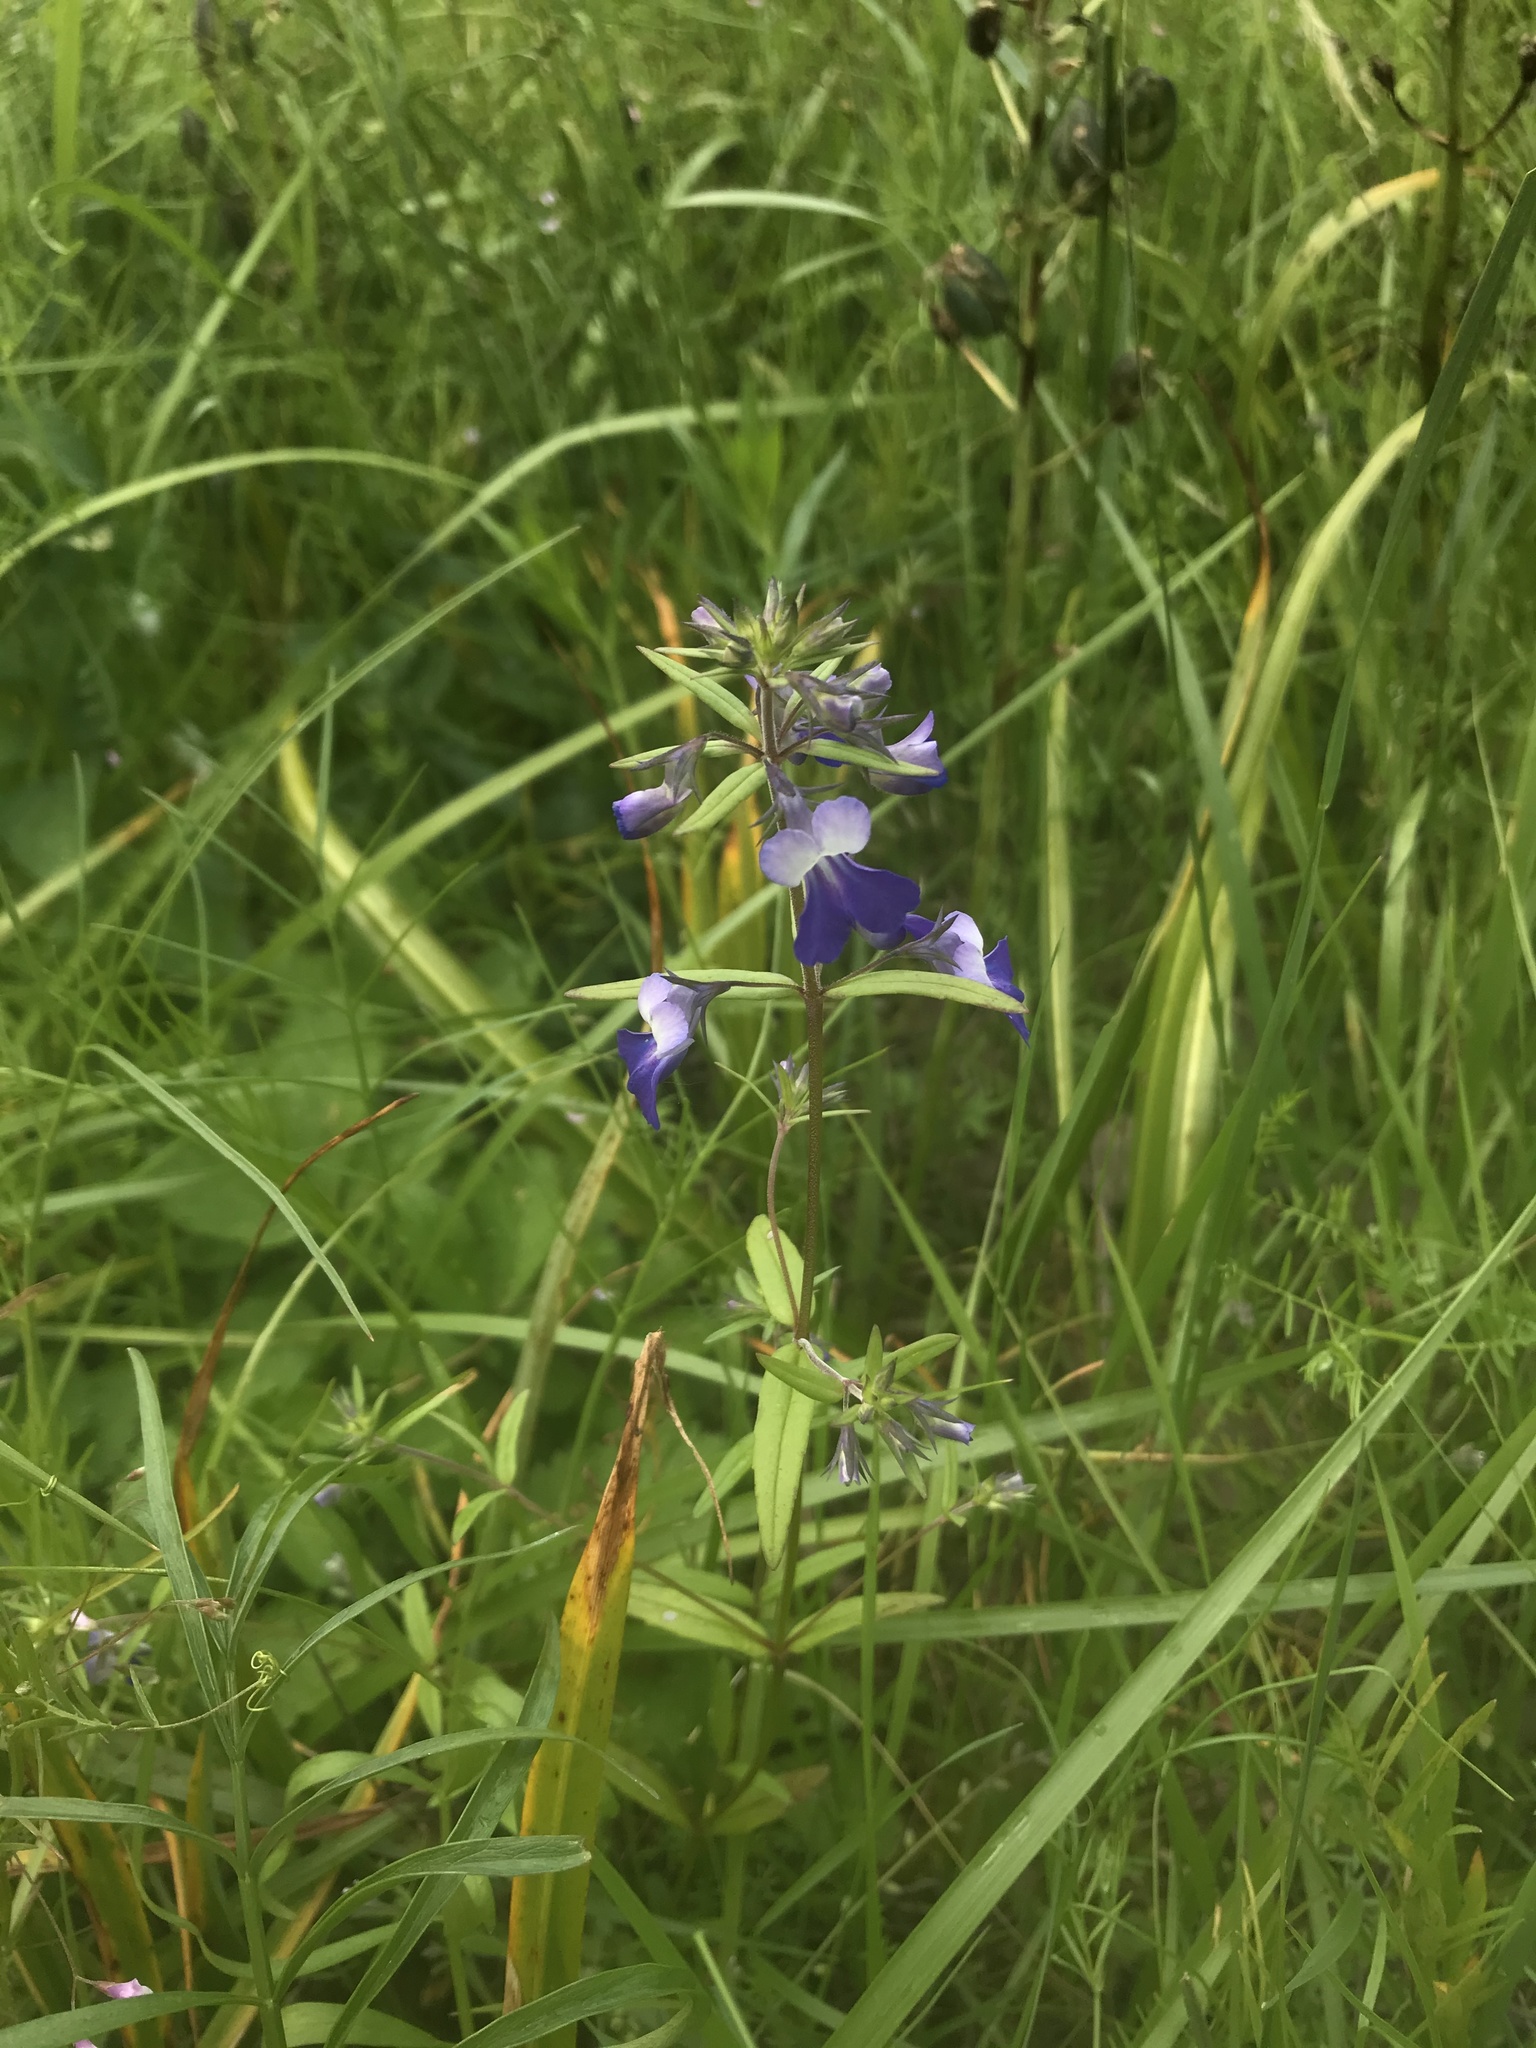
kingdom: Plantae
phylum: Tracheophyta
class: Magnoliopsida
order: Lamiales
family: Plantaginaceae
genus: Collinsia
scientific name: Collinsia grandiflora
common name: Large-flower blue-eyed-mary
